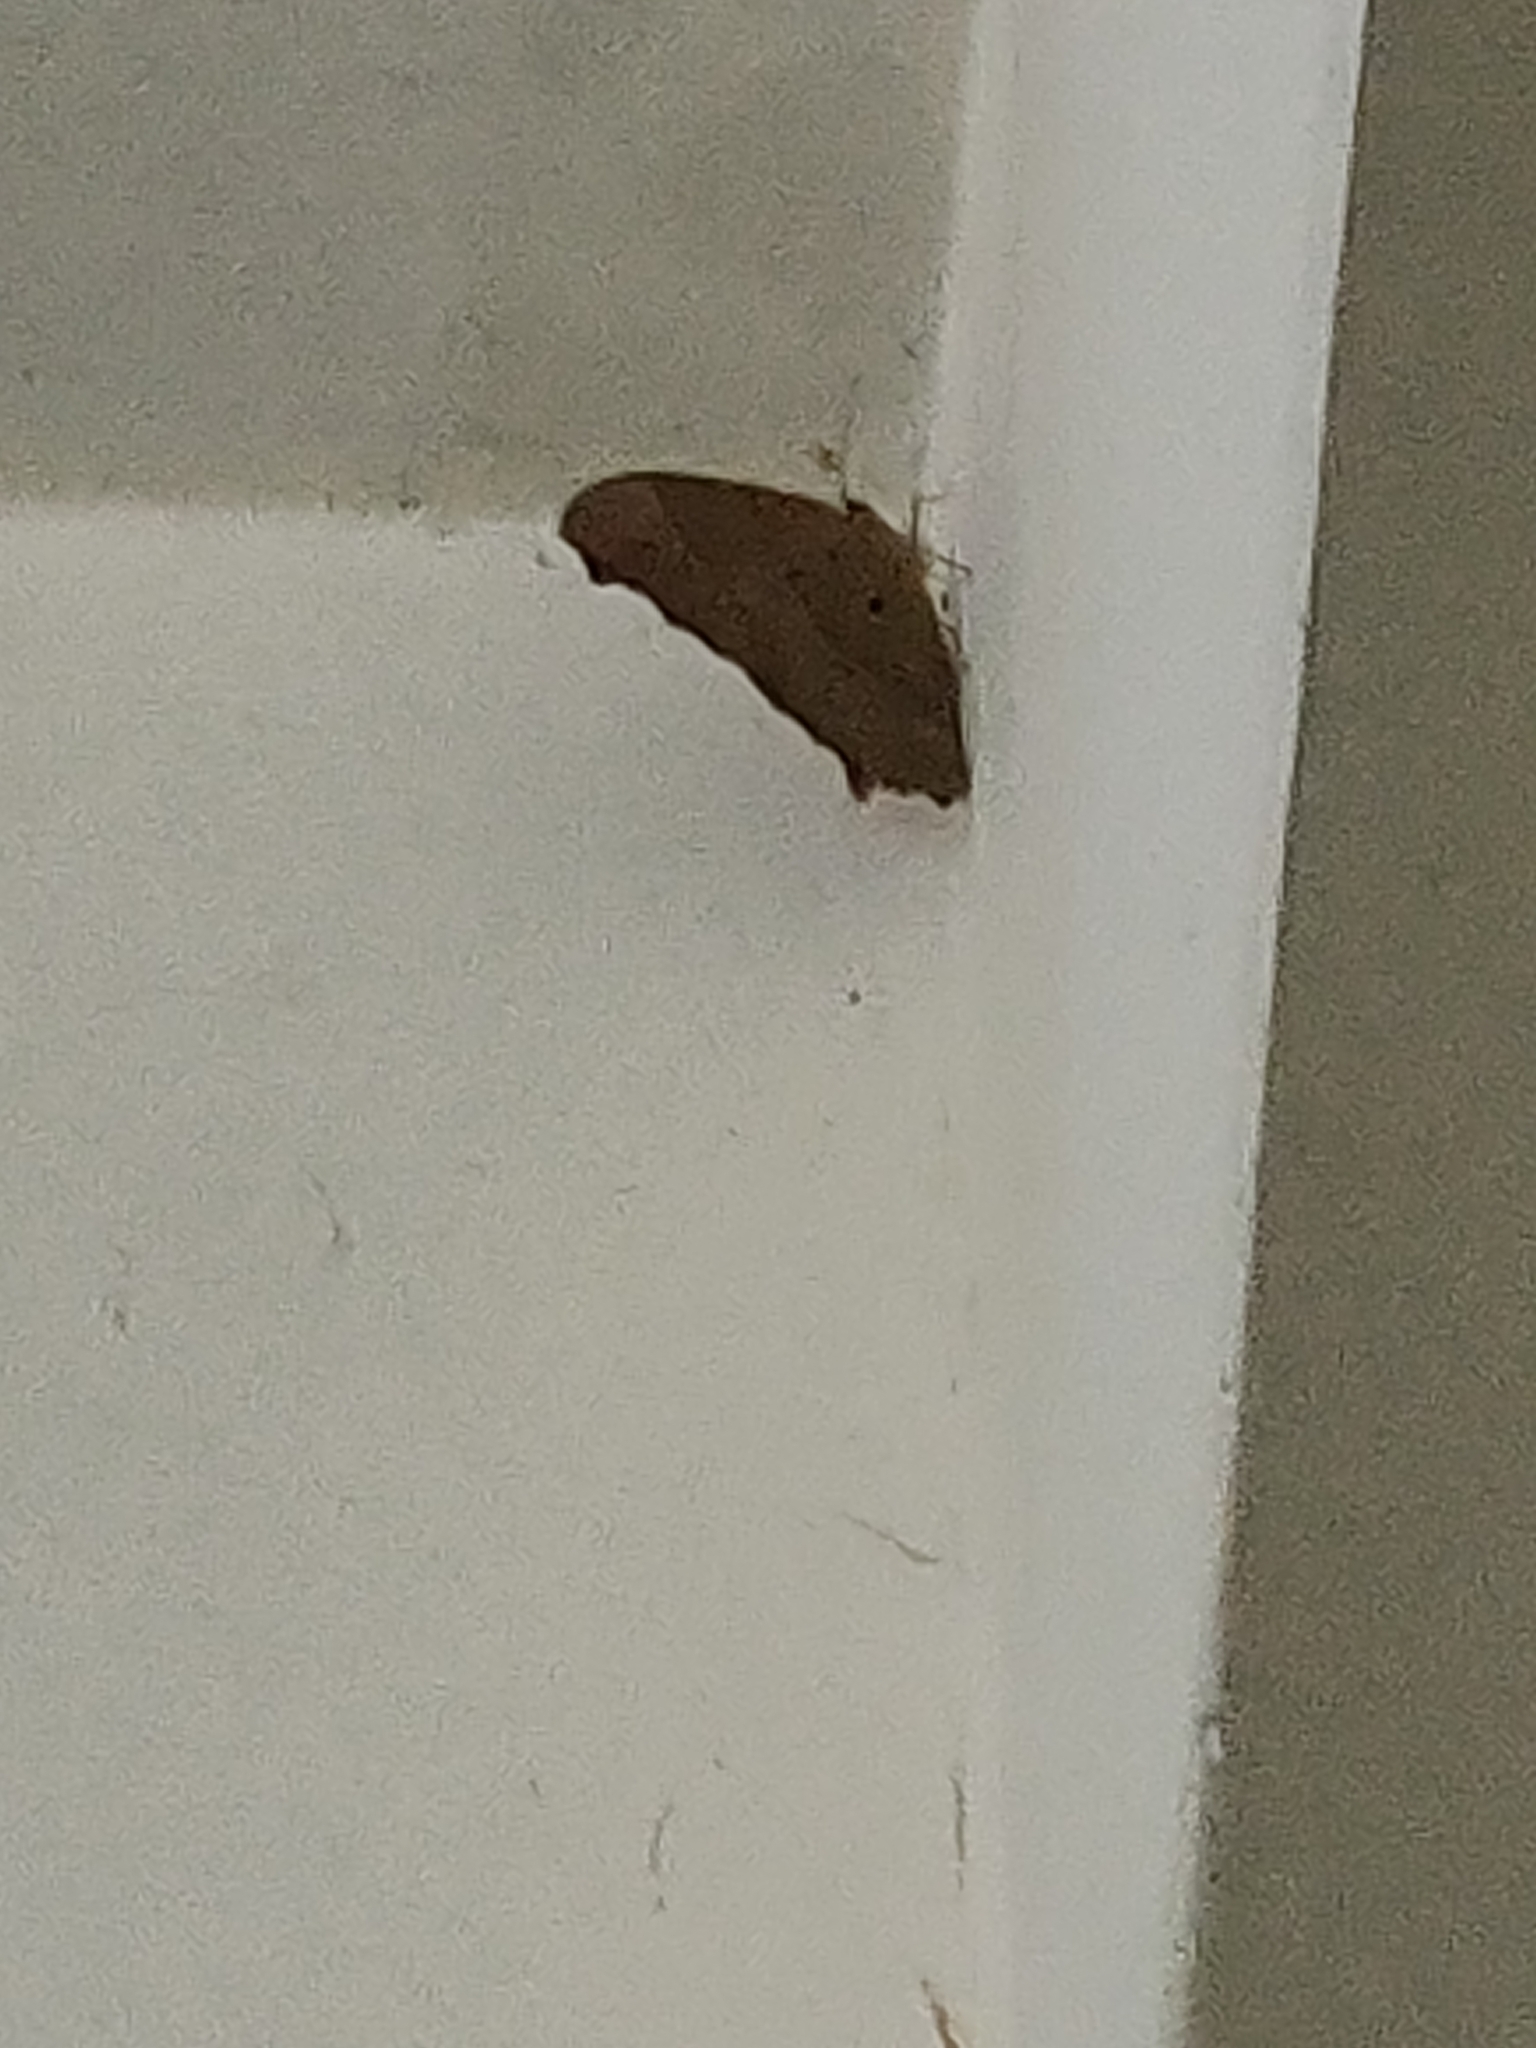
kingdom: Animalia
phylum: Arthropoda
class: Insecta
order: Lepidoptera
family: Nymphalidae
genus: Melanitis
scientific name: Melanitis leda
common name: Twilight brown
